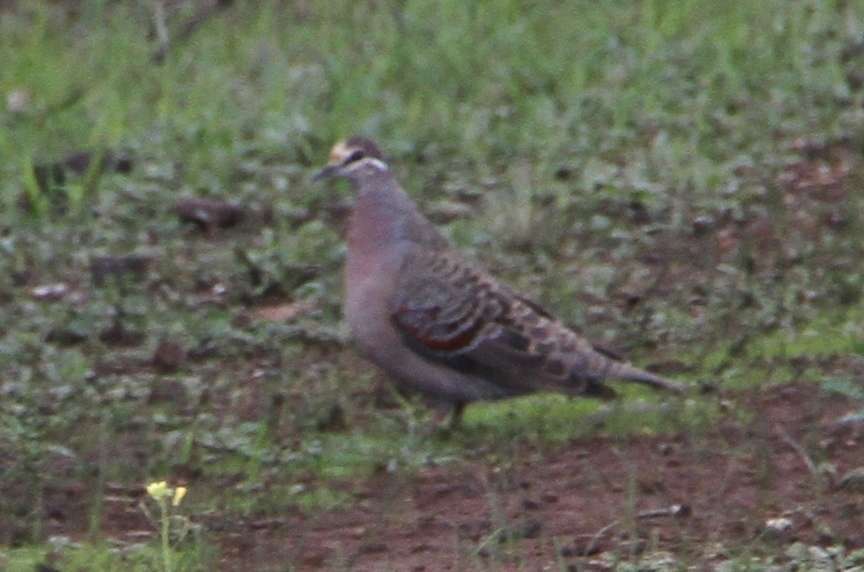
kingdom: Animalia
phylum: Chordata
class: Aves
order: Columbiformes
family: Columbidae
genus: Phaps
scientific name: Phaps chalcoptera
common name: Common bronzewing
